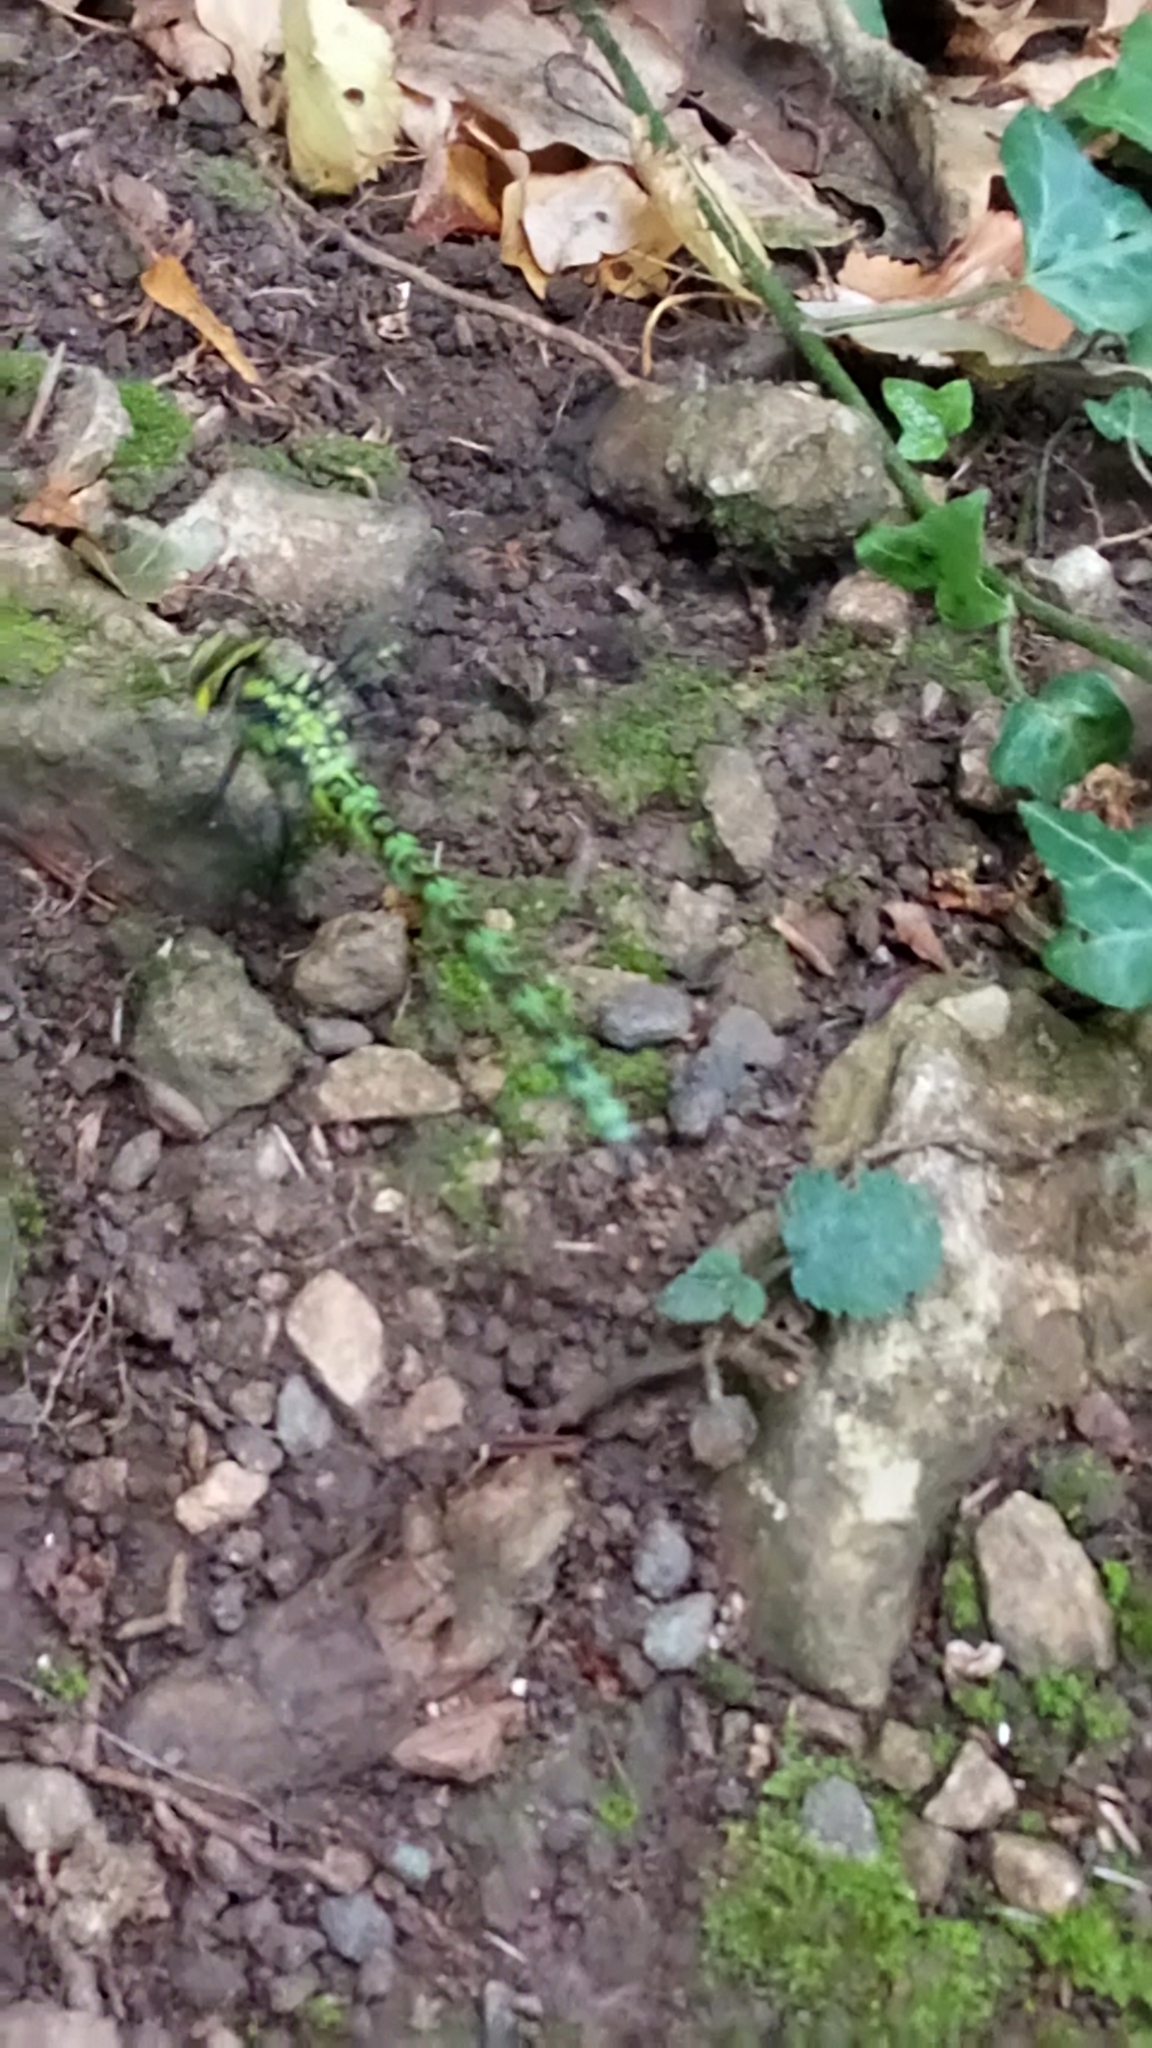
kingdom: Animalia
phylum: Arthropoda
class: Insecta
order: Odonata
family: Aeshnidae
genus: Aeshna
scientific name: Aeshna cyanea
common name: Southern hawker
